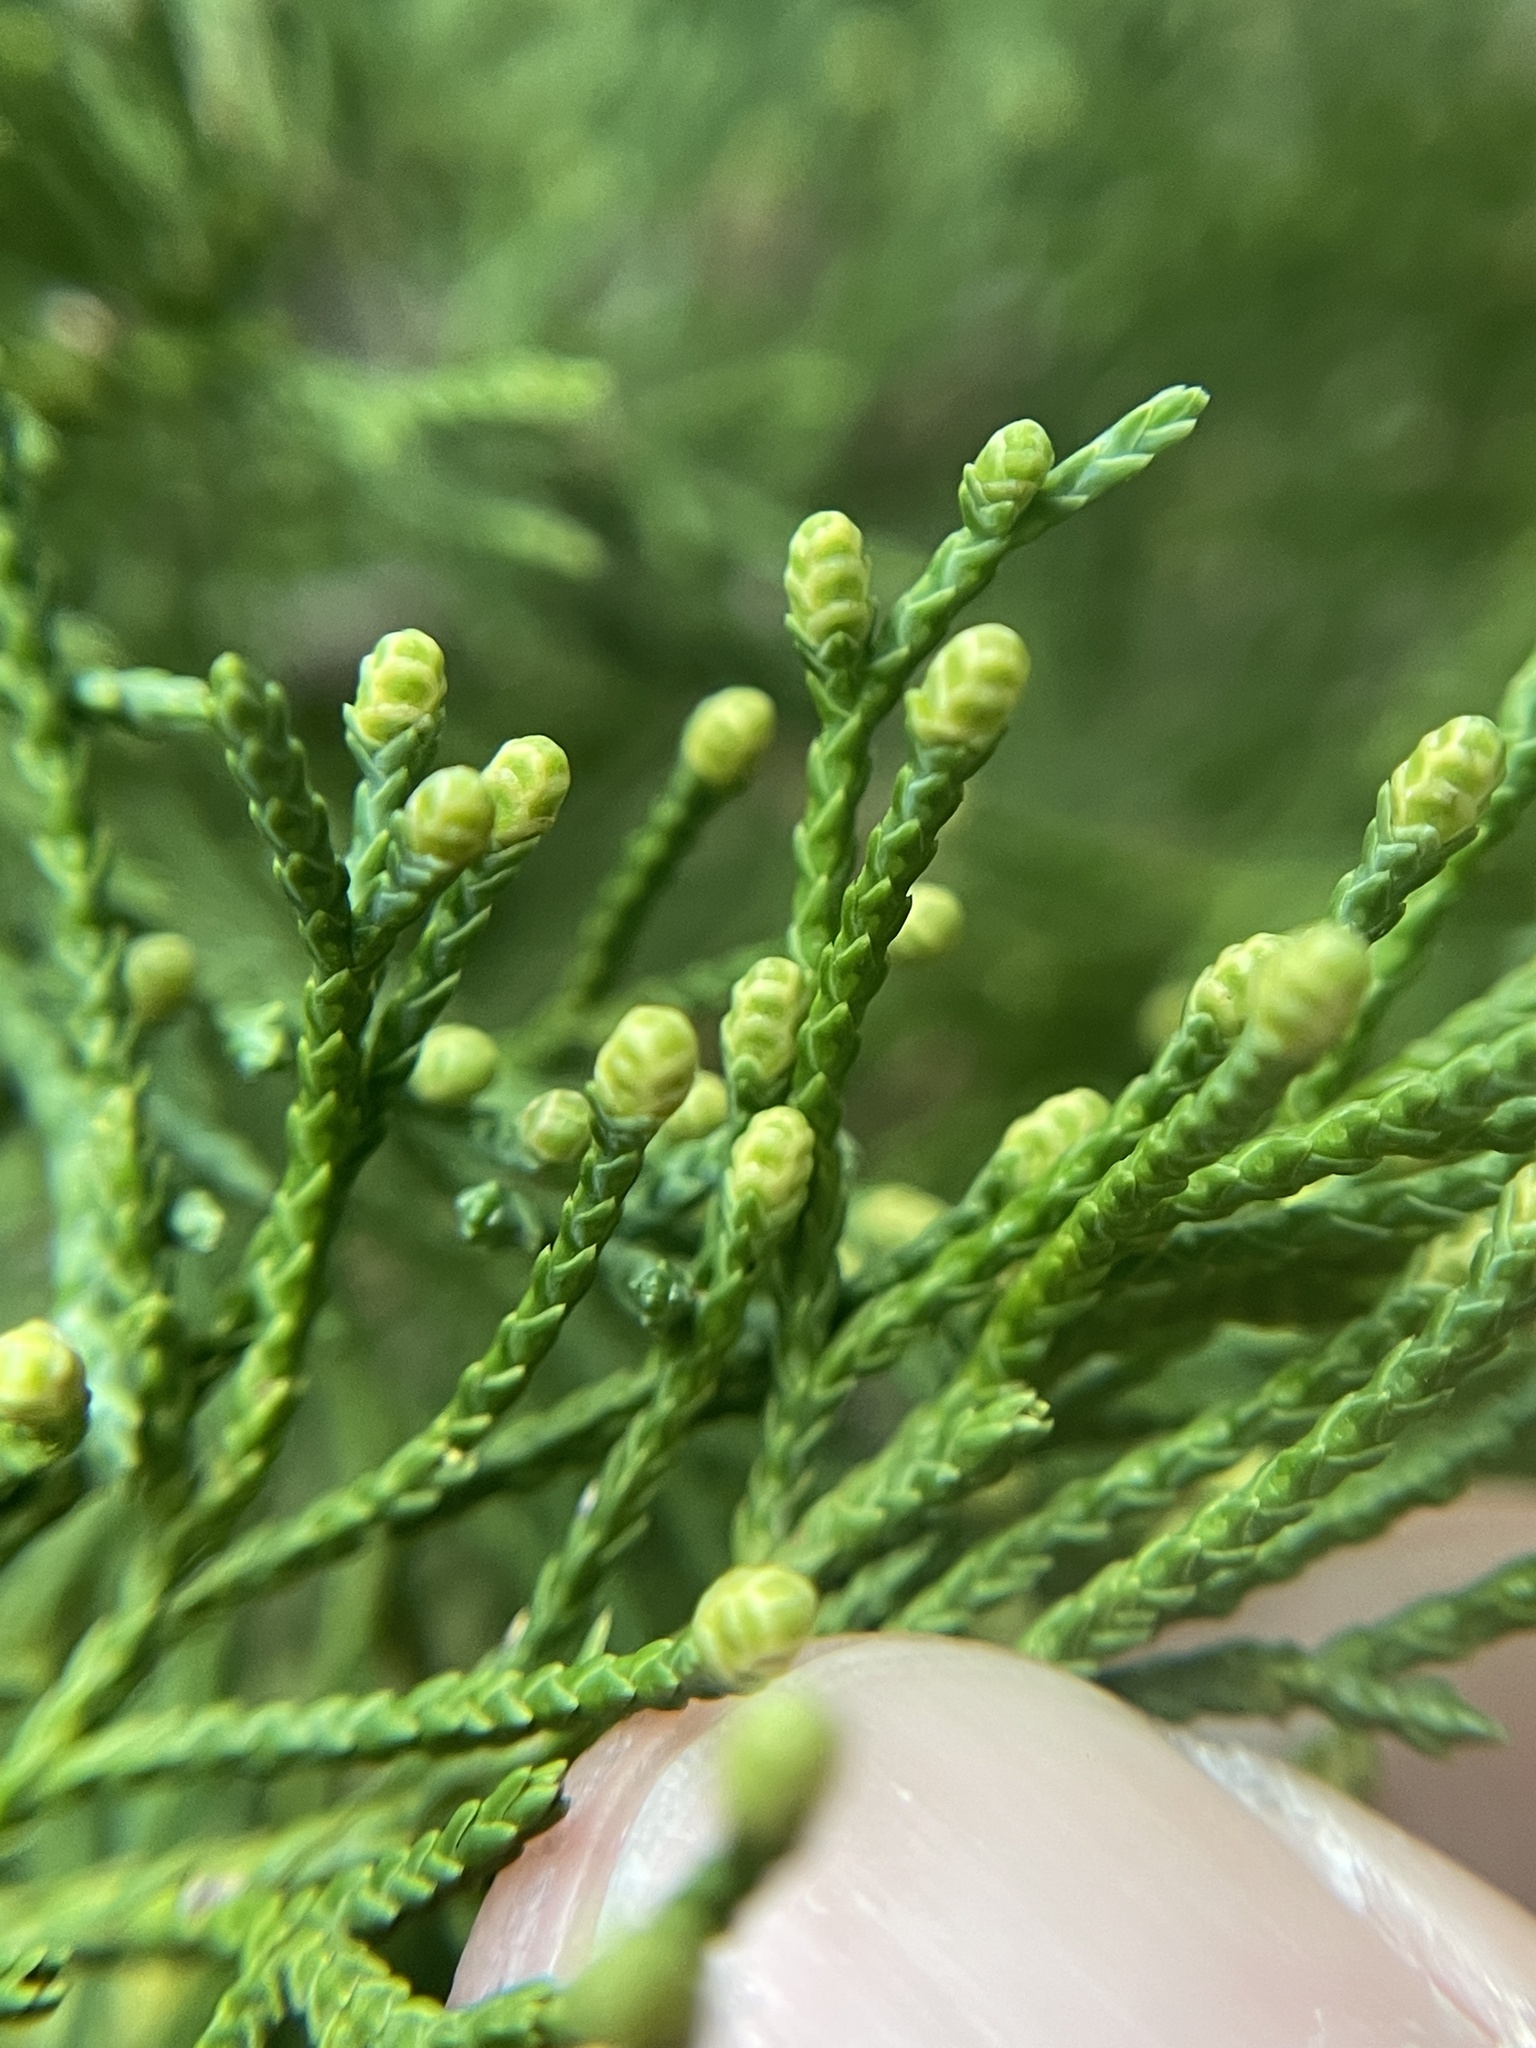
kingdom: Plantae
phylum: Tracheophyta
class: Pinopsida
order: Pinales
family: Cupressaceae
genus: Juniperus
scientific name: Juniperus virginiana
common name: Red juniper
